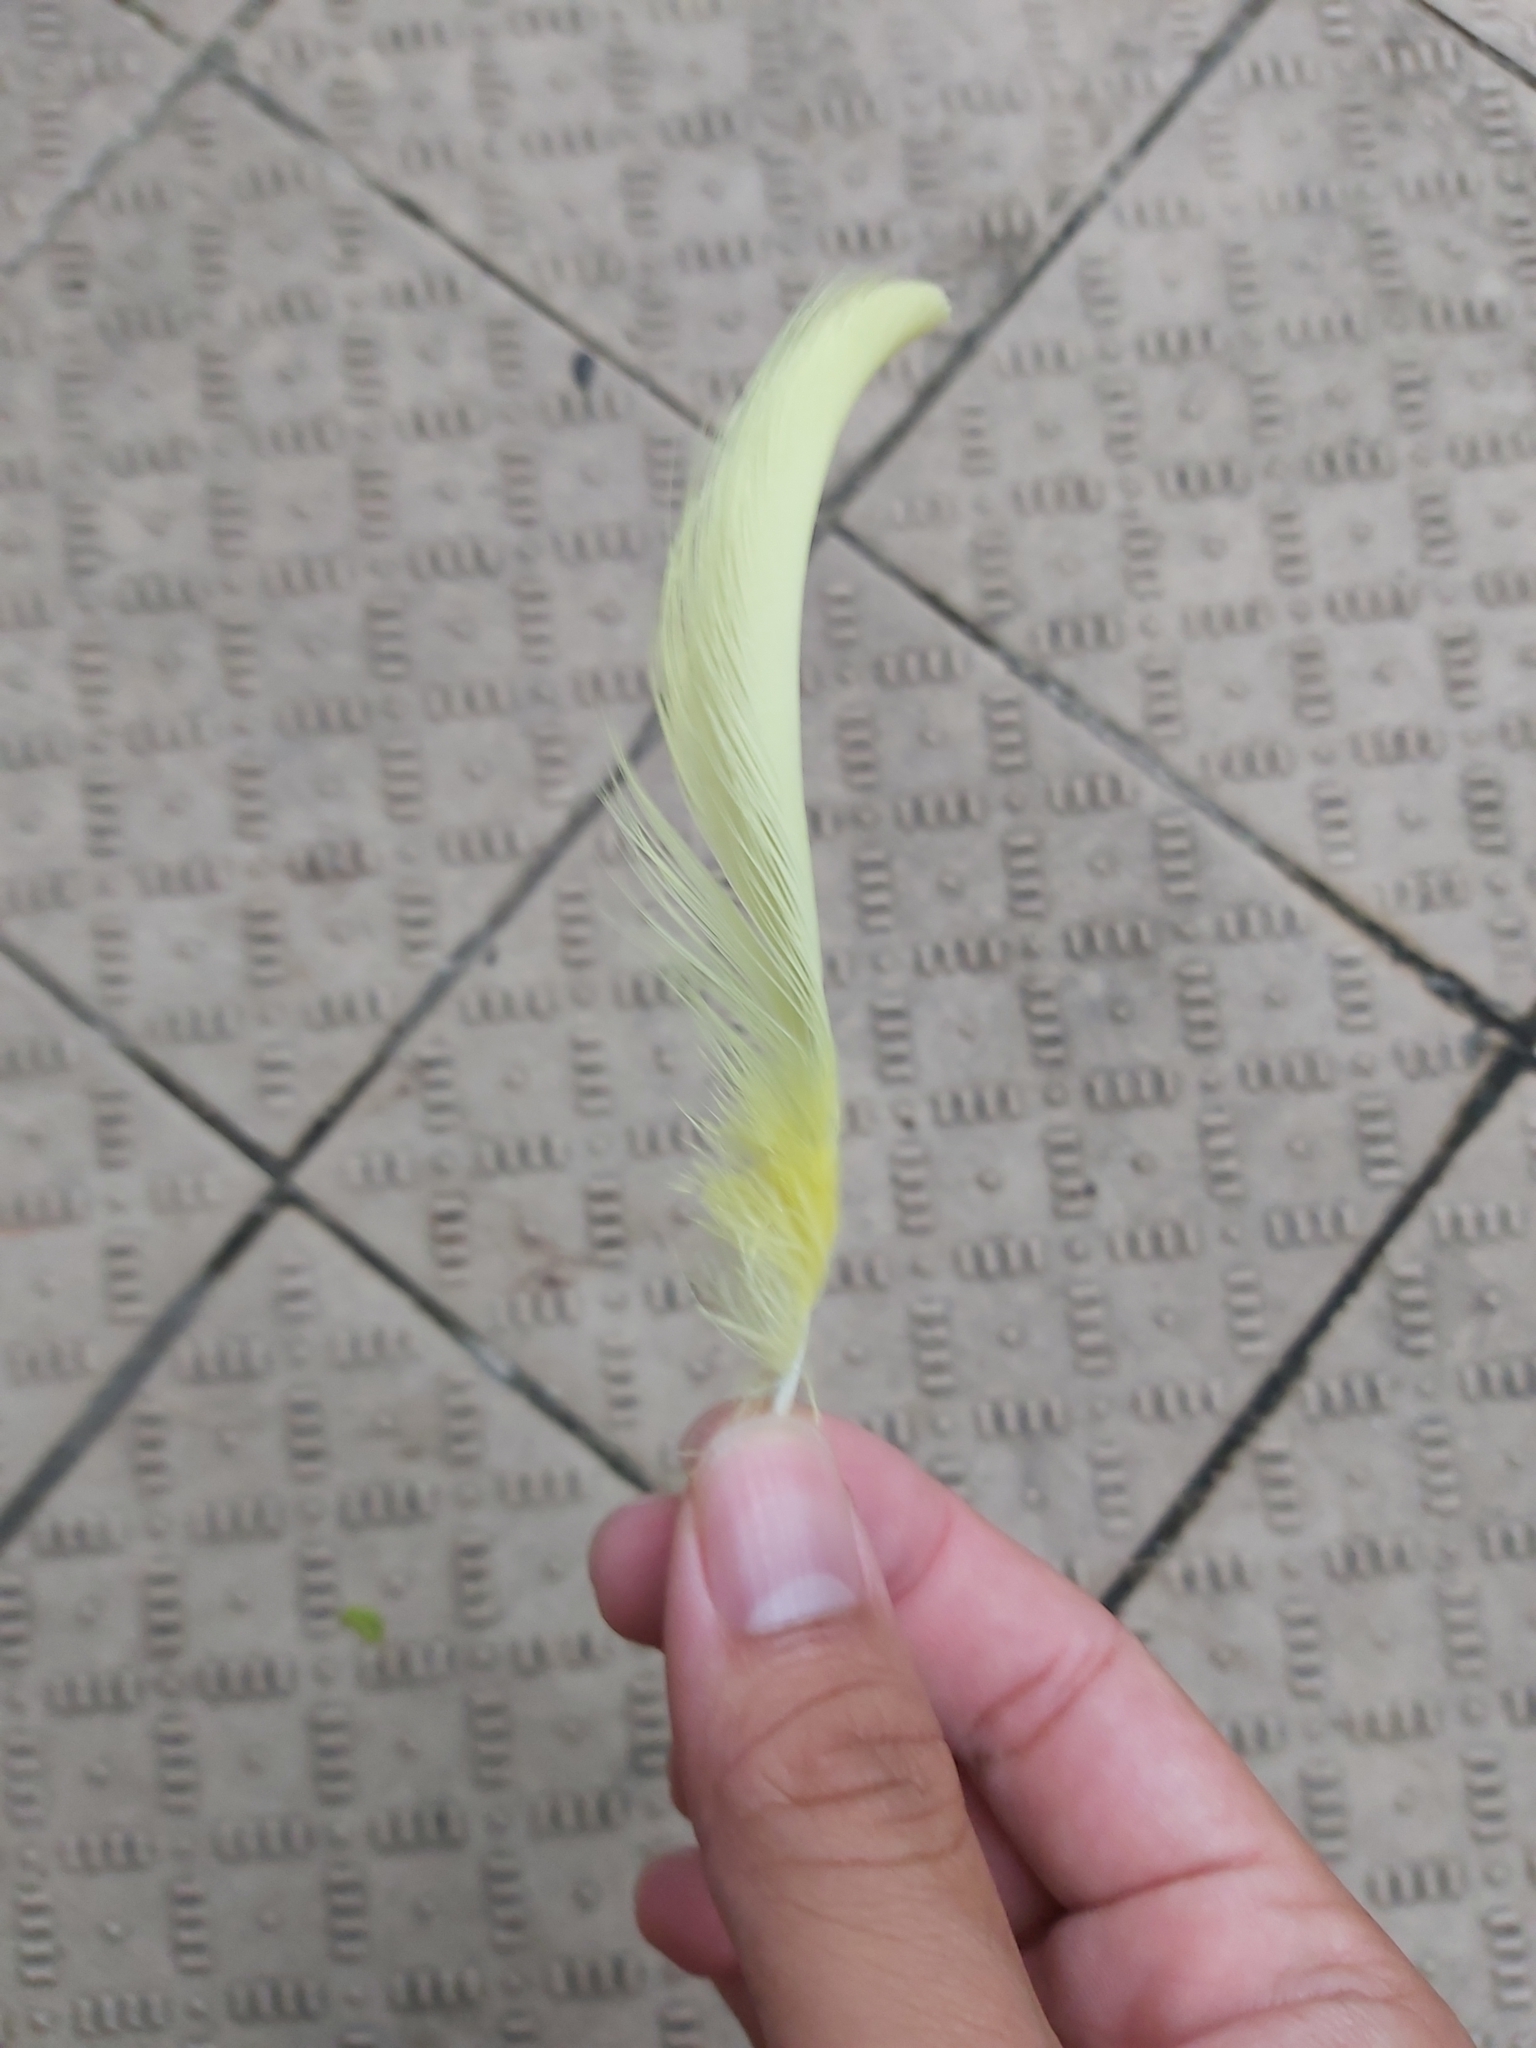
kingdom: Animalia
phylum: Chordata
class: Aves
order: Psittaciformes
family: Psittacidae
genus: Cacatua
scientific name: Cacatua galerita
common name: Sulphur-crested cockatoo
